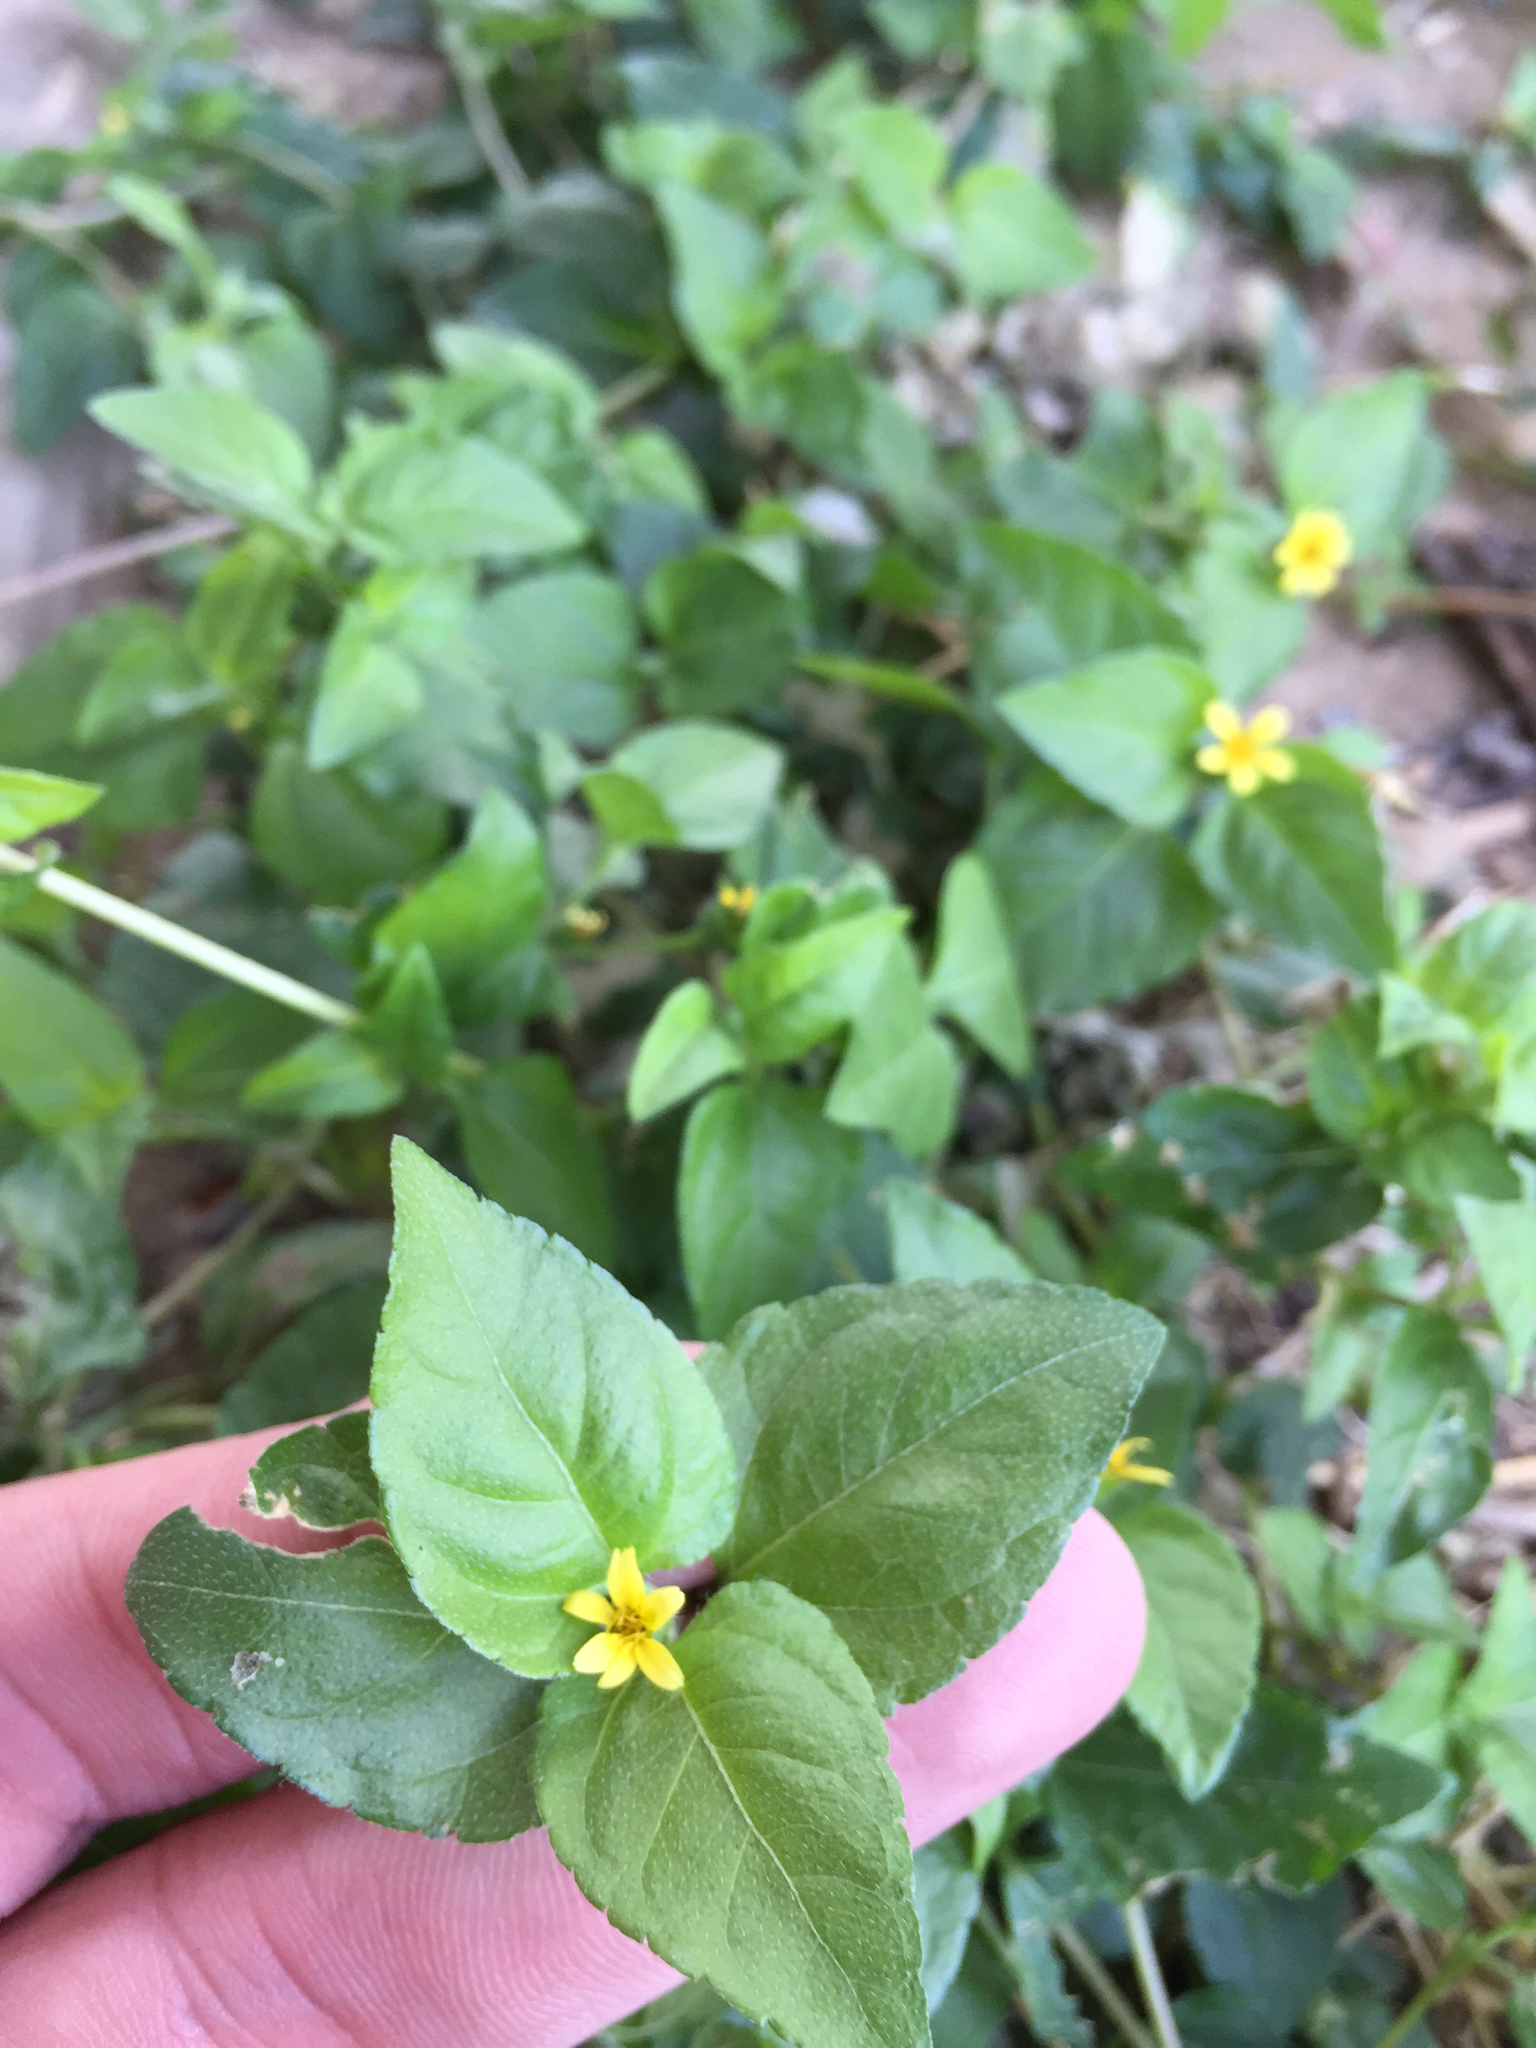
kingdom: Plantae
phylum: Tracheophyta
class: Magnoliopsida
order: Asterales
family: Asteraceae
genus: Calyptocarpus
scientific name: Calyptocarpus vialis
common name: Straggler daisy
